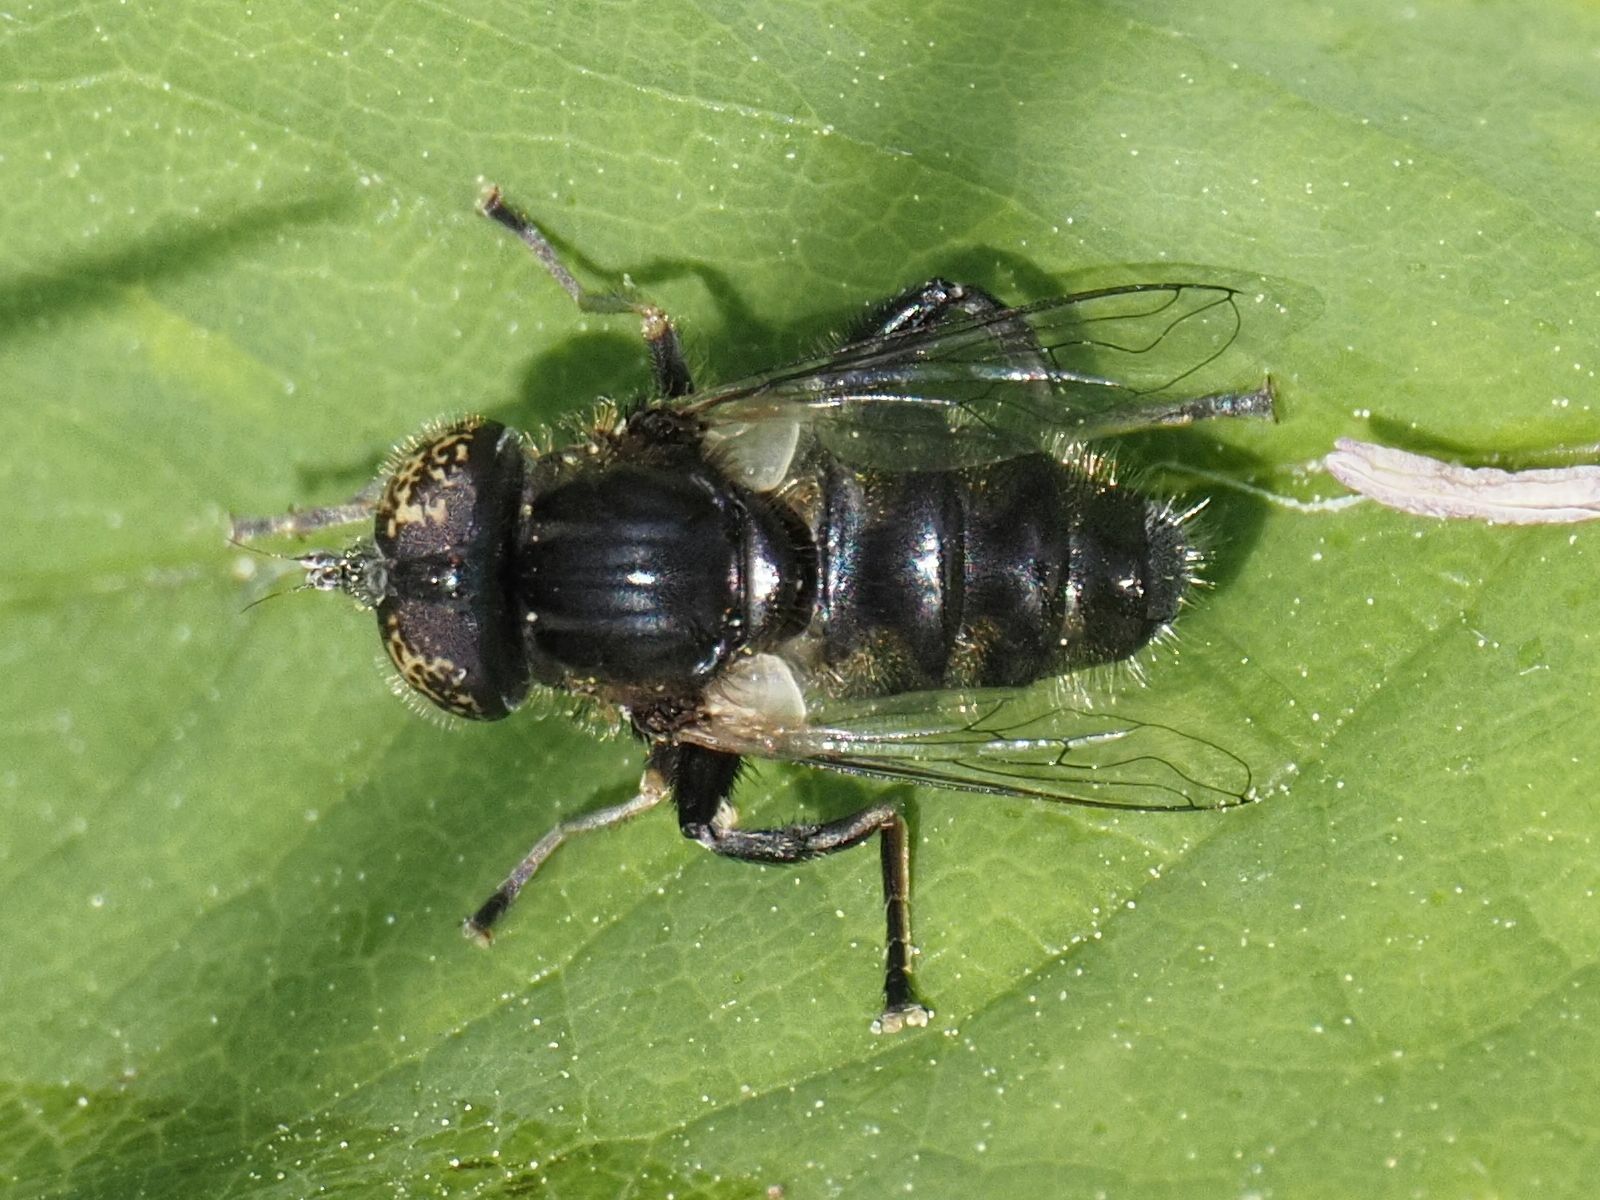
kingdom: Animalia
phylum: Arthropoda
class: Insecta
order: Diptera
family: Syrphidae
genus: Eristalinus
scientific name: Eristalinus sepulchralis
